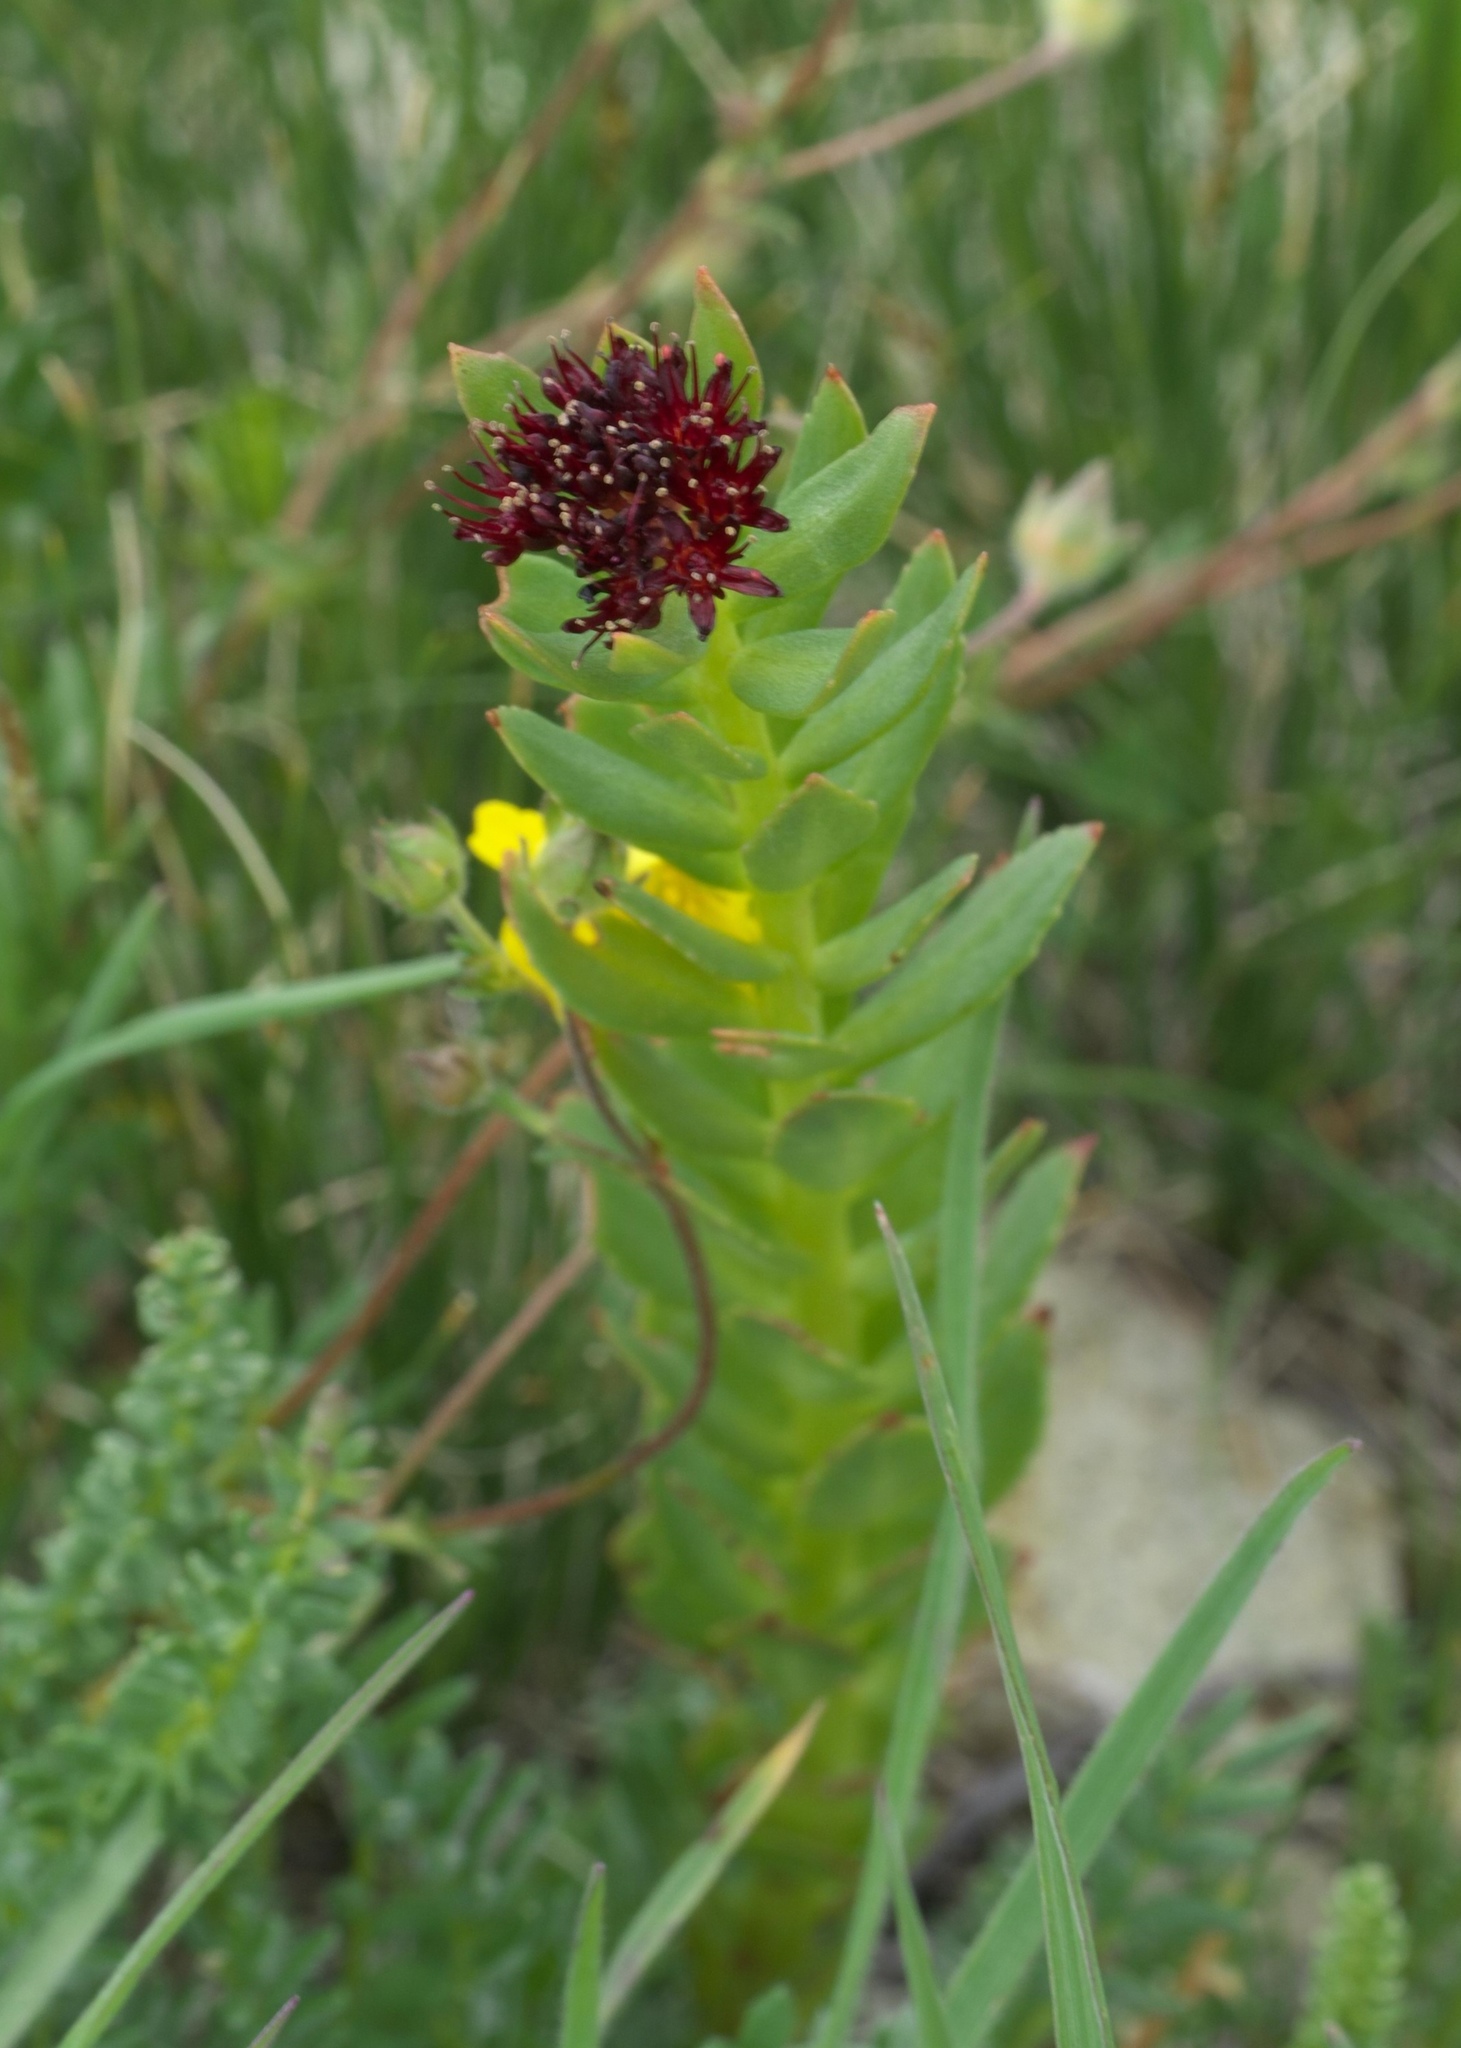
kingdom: Plantae
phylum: Tracheophyta
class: Magnoliopsida
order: Saxifragales
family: Crassulaceae
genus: Rhodiola
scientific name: Rhodiola integrifolia
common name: Western roseroot
